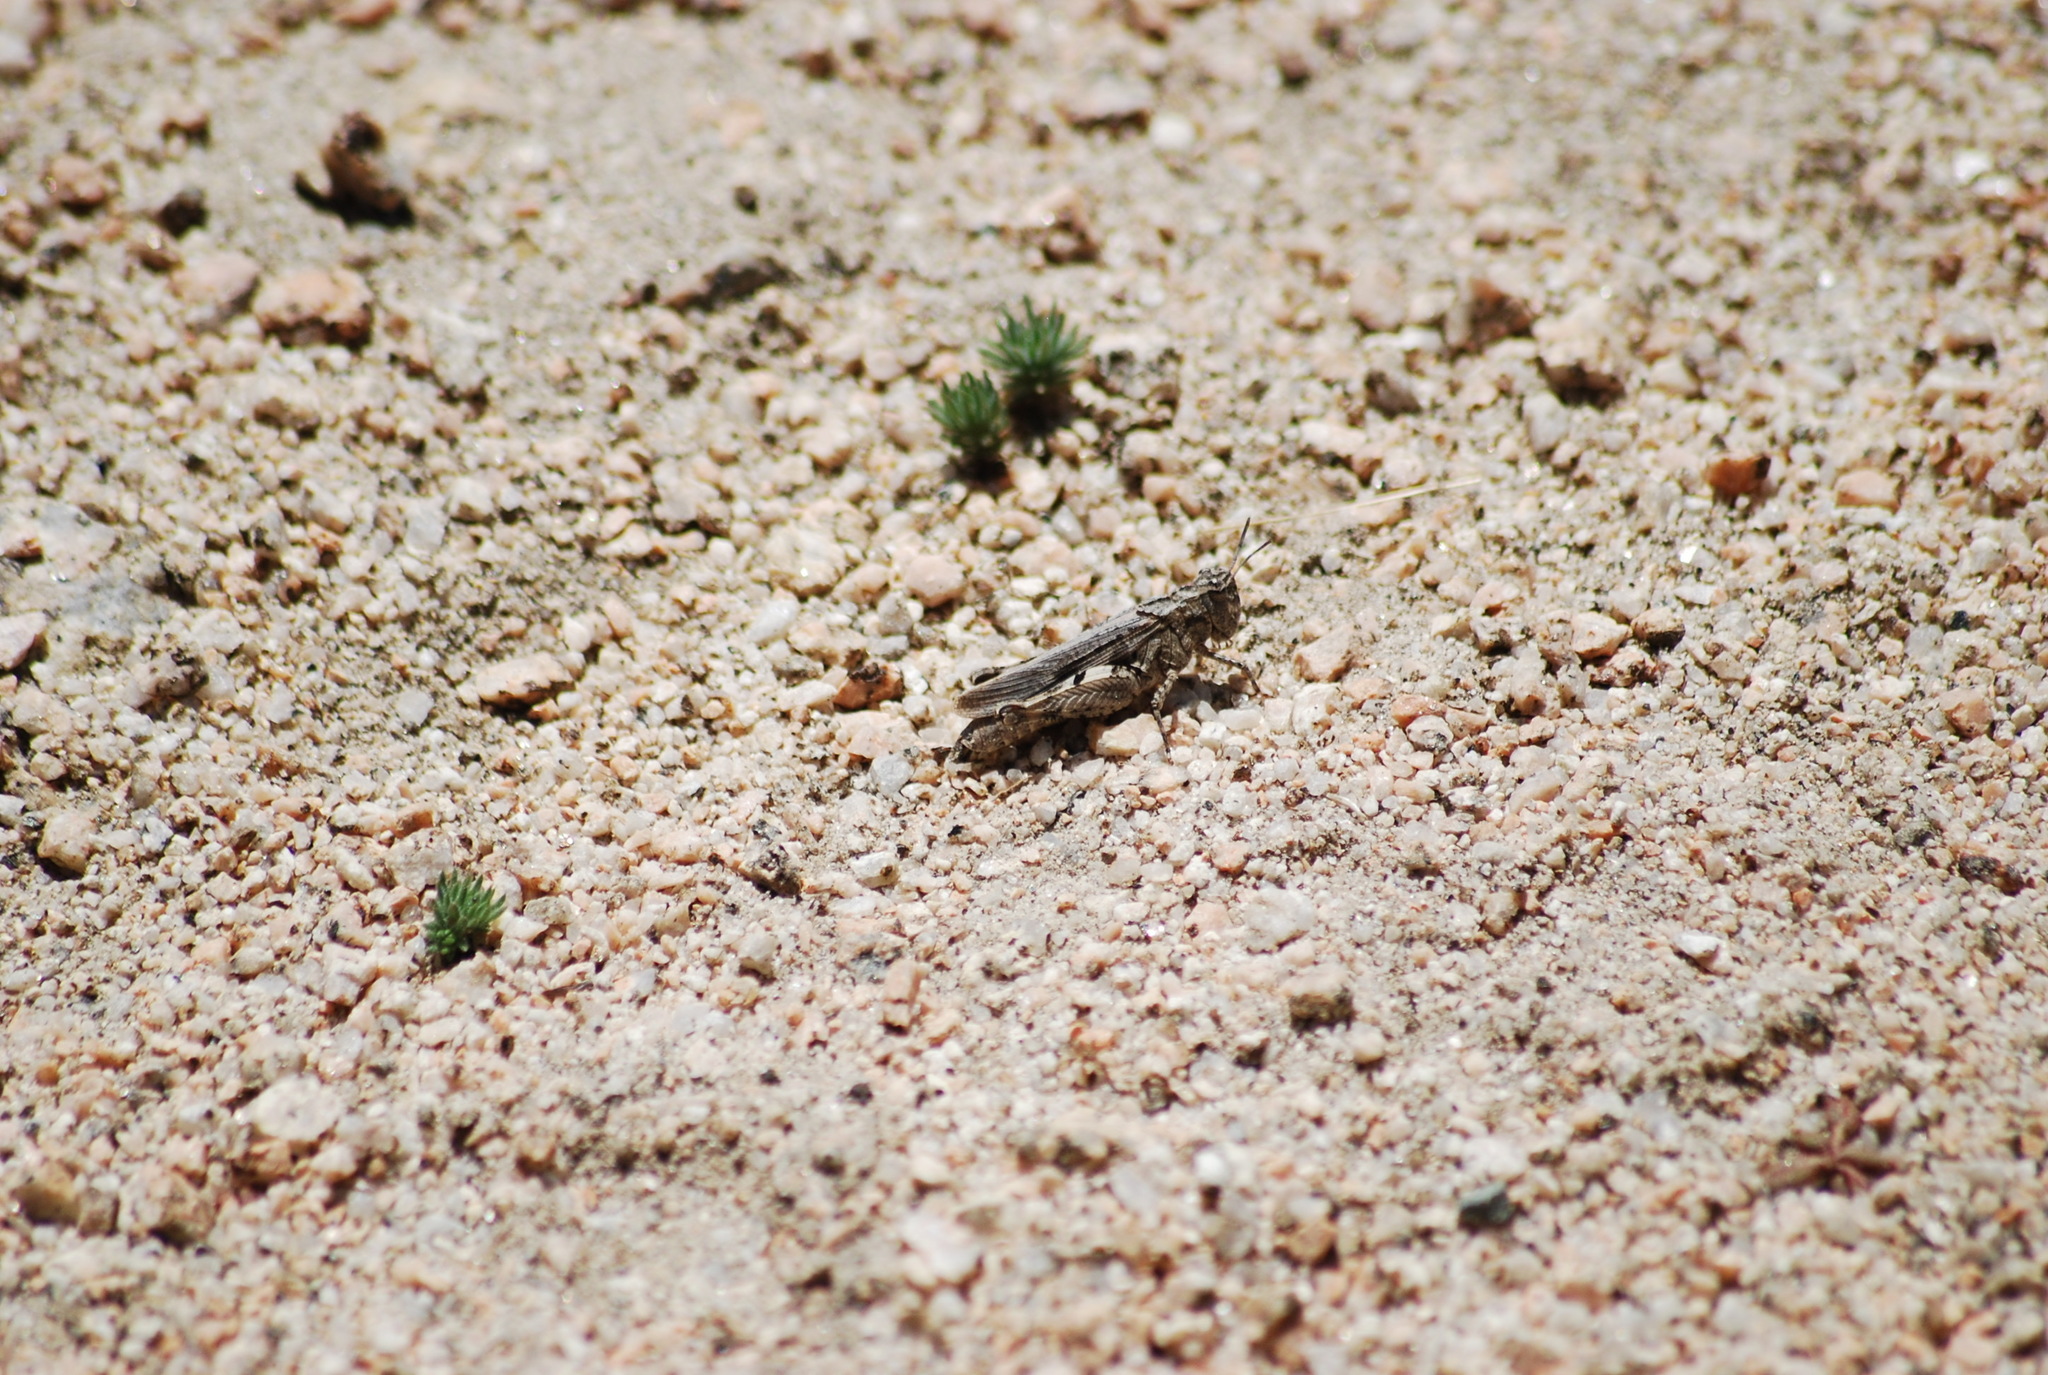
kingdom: Animalia
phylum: Arthropoda
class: Insecta
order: Orthoptera
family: Acrididae
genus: Chimarocephala
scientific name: Chimarocephala pacifica
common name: Painted meadow grasshopper
